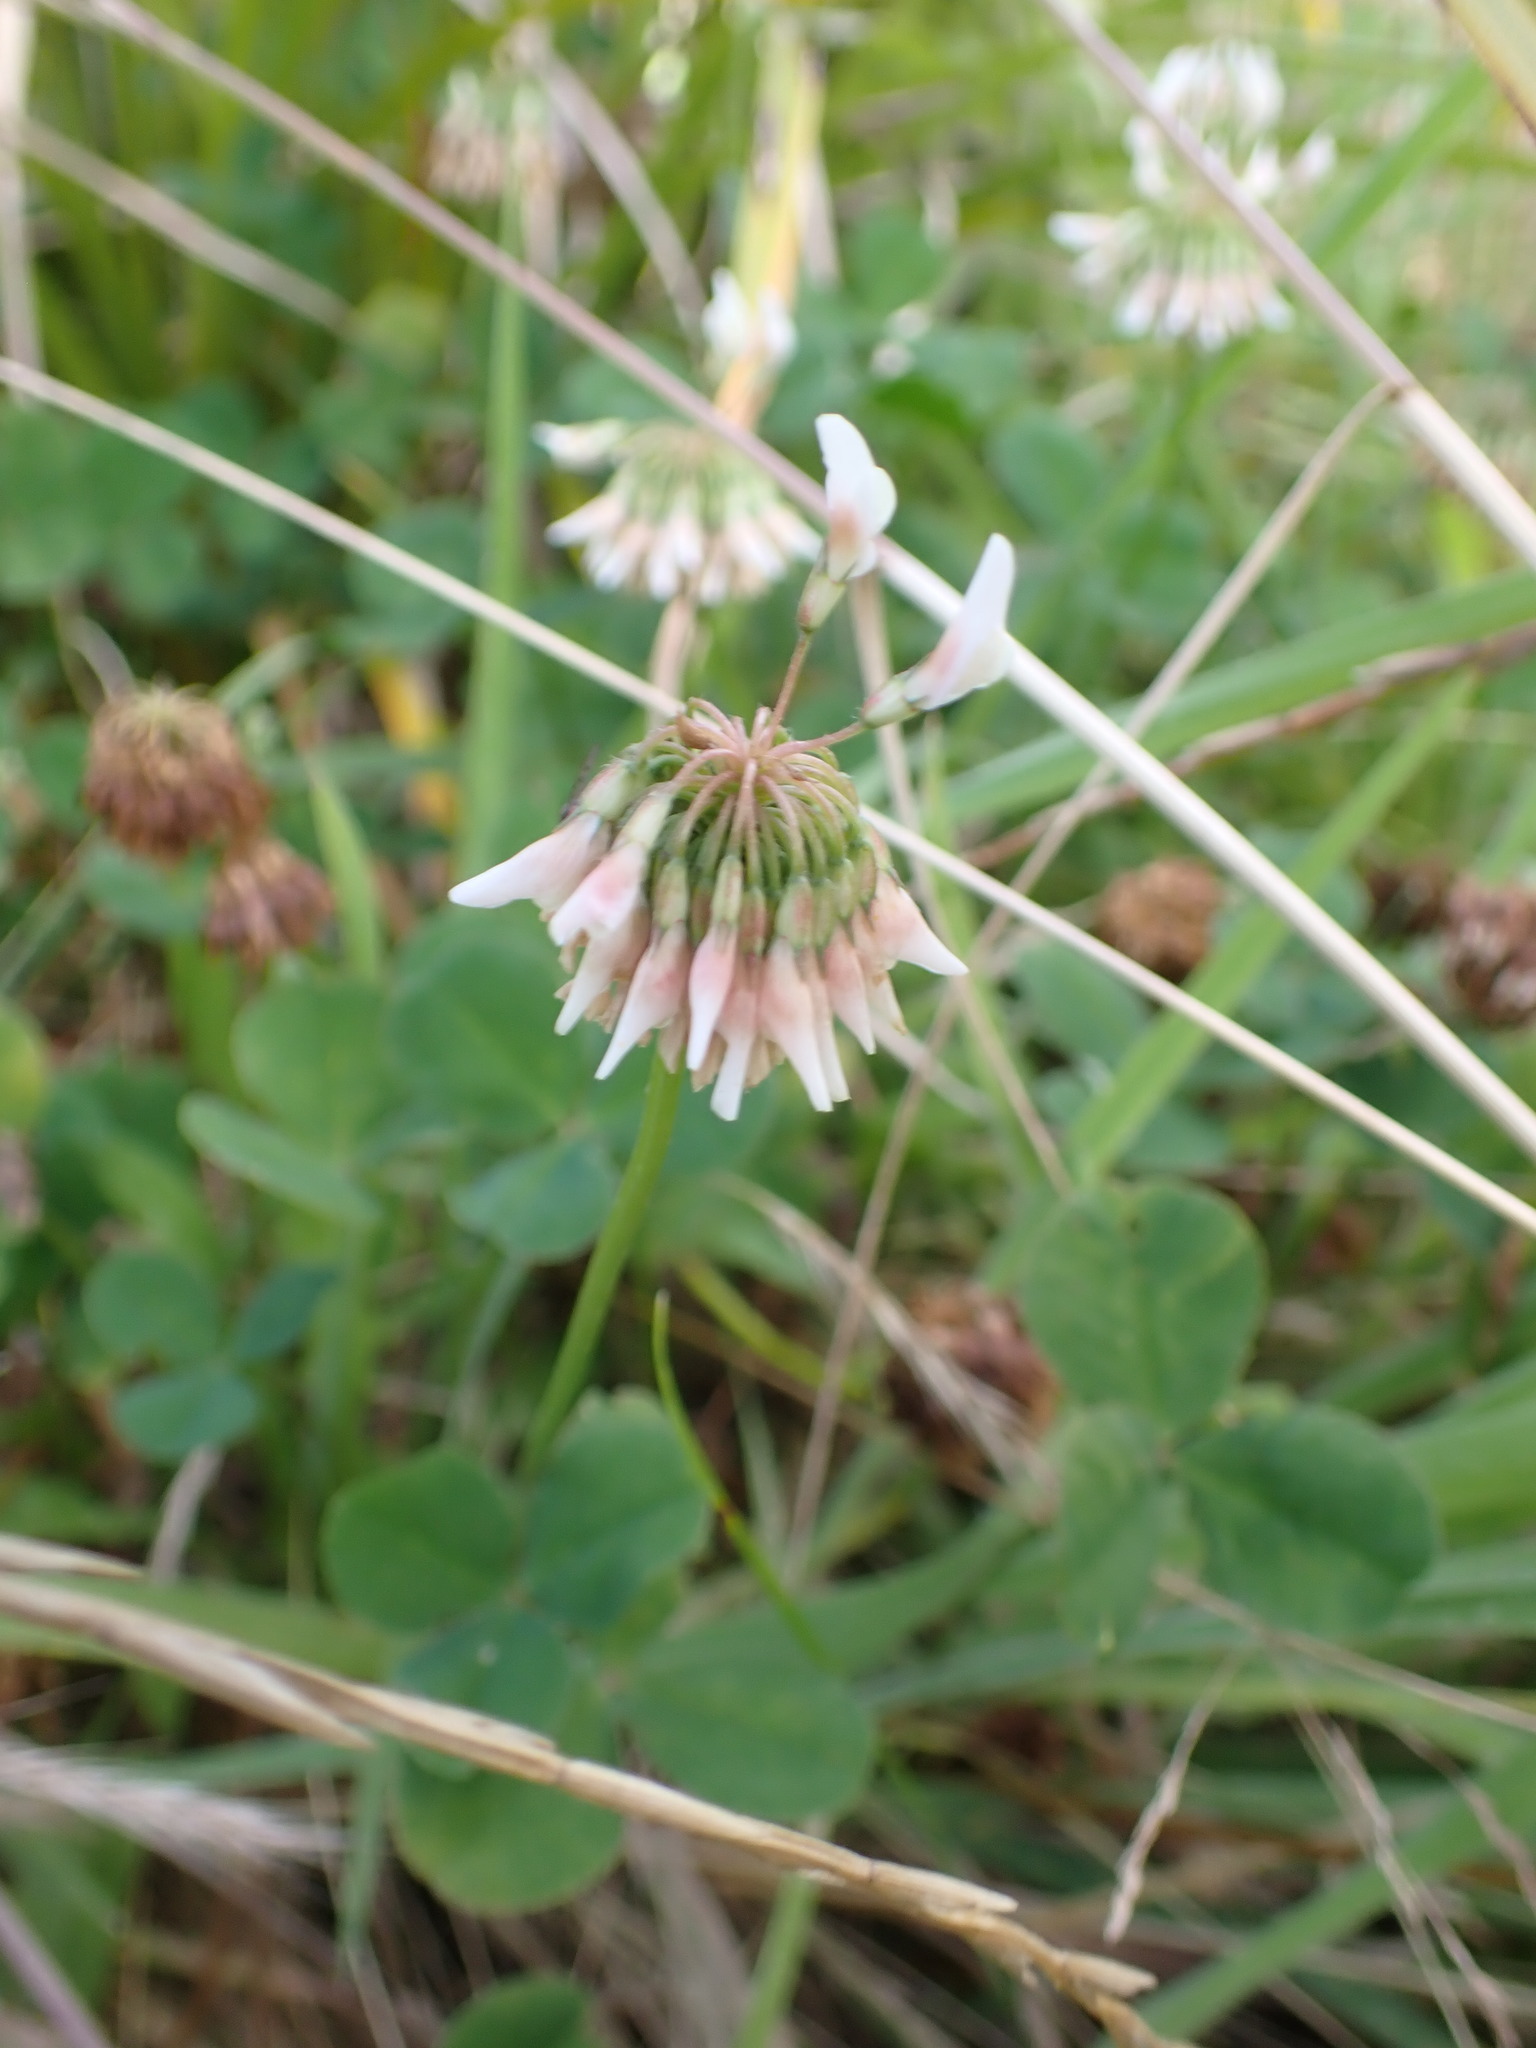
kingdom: Plantae
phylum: Tracheophyta
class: Magnoliopsida
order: Fabales
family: Fabaceae
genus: Trifolium
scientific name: Trifolium repens
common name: White clover
